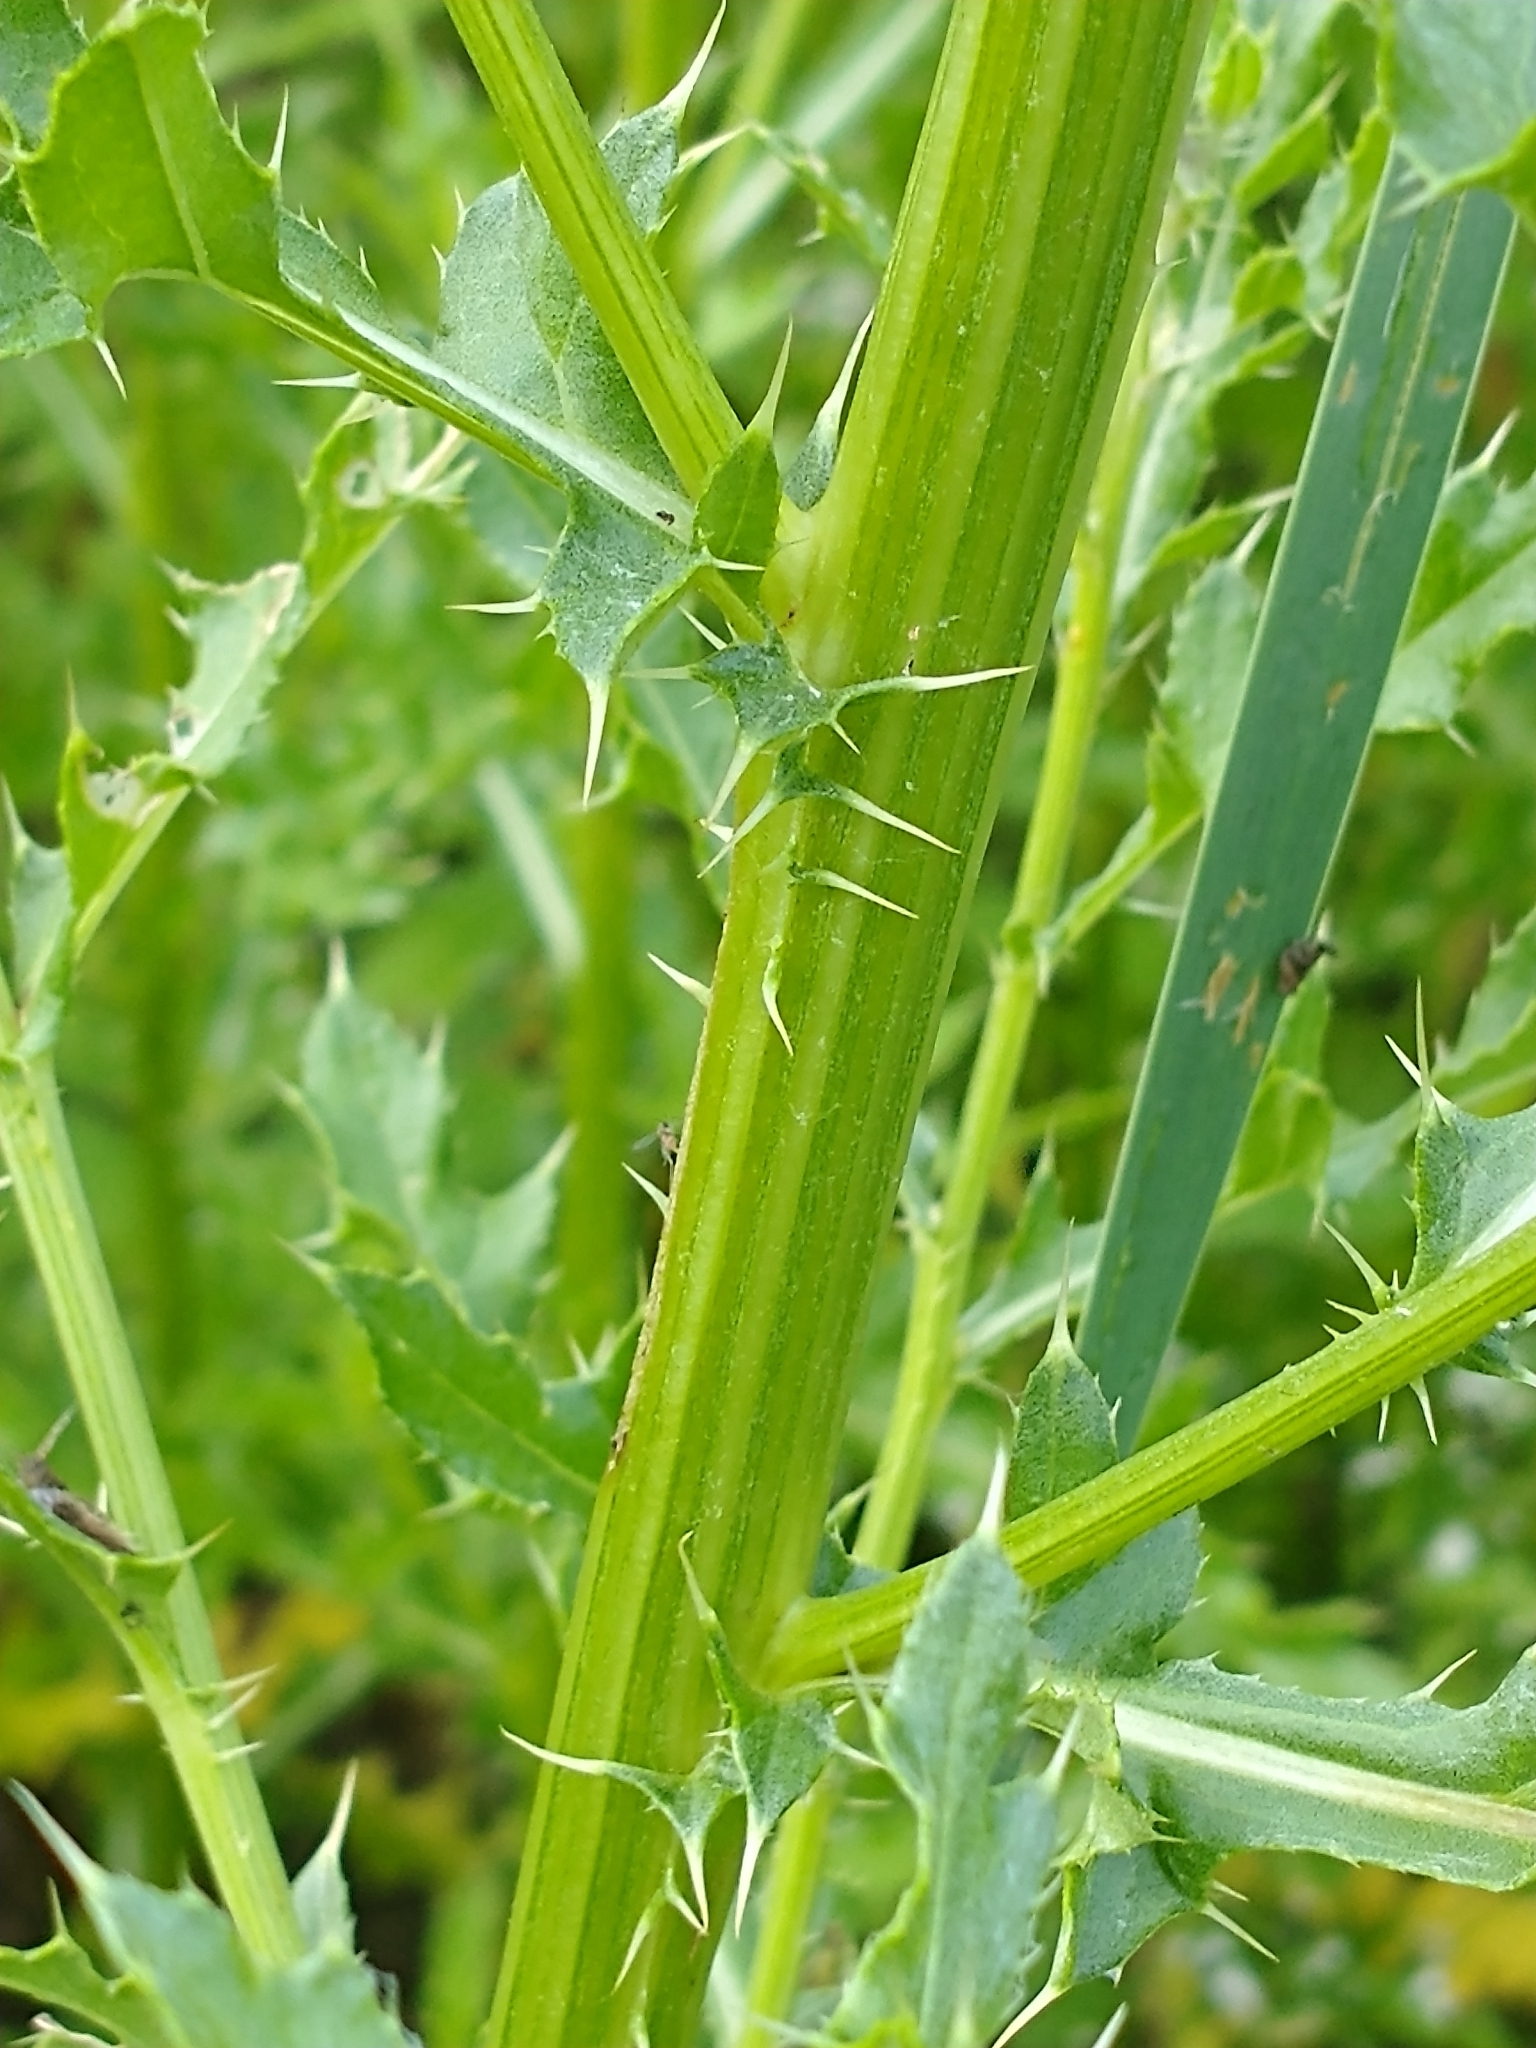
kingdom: Plantae
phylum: Tracheophyta
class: Magnoliopsida
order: Asterales
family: Asteraceae
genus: Cirsium
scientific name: Cirsium arvense
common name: Creeping thistle
